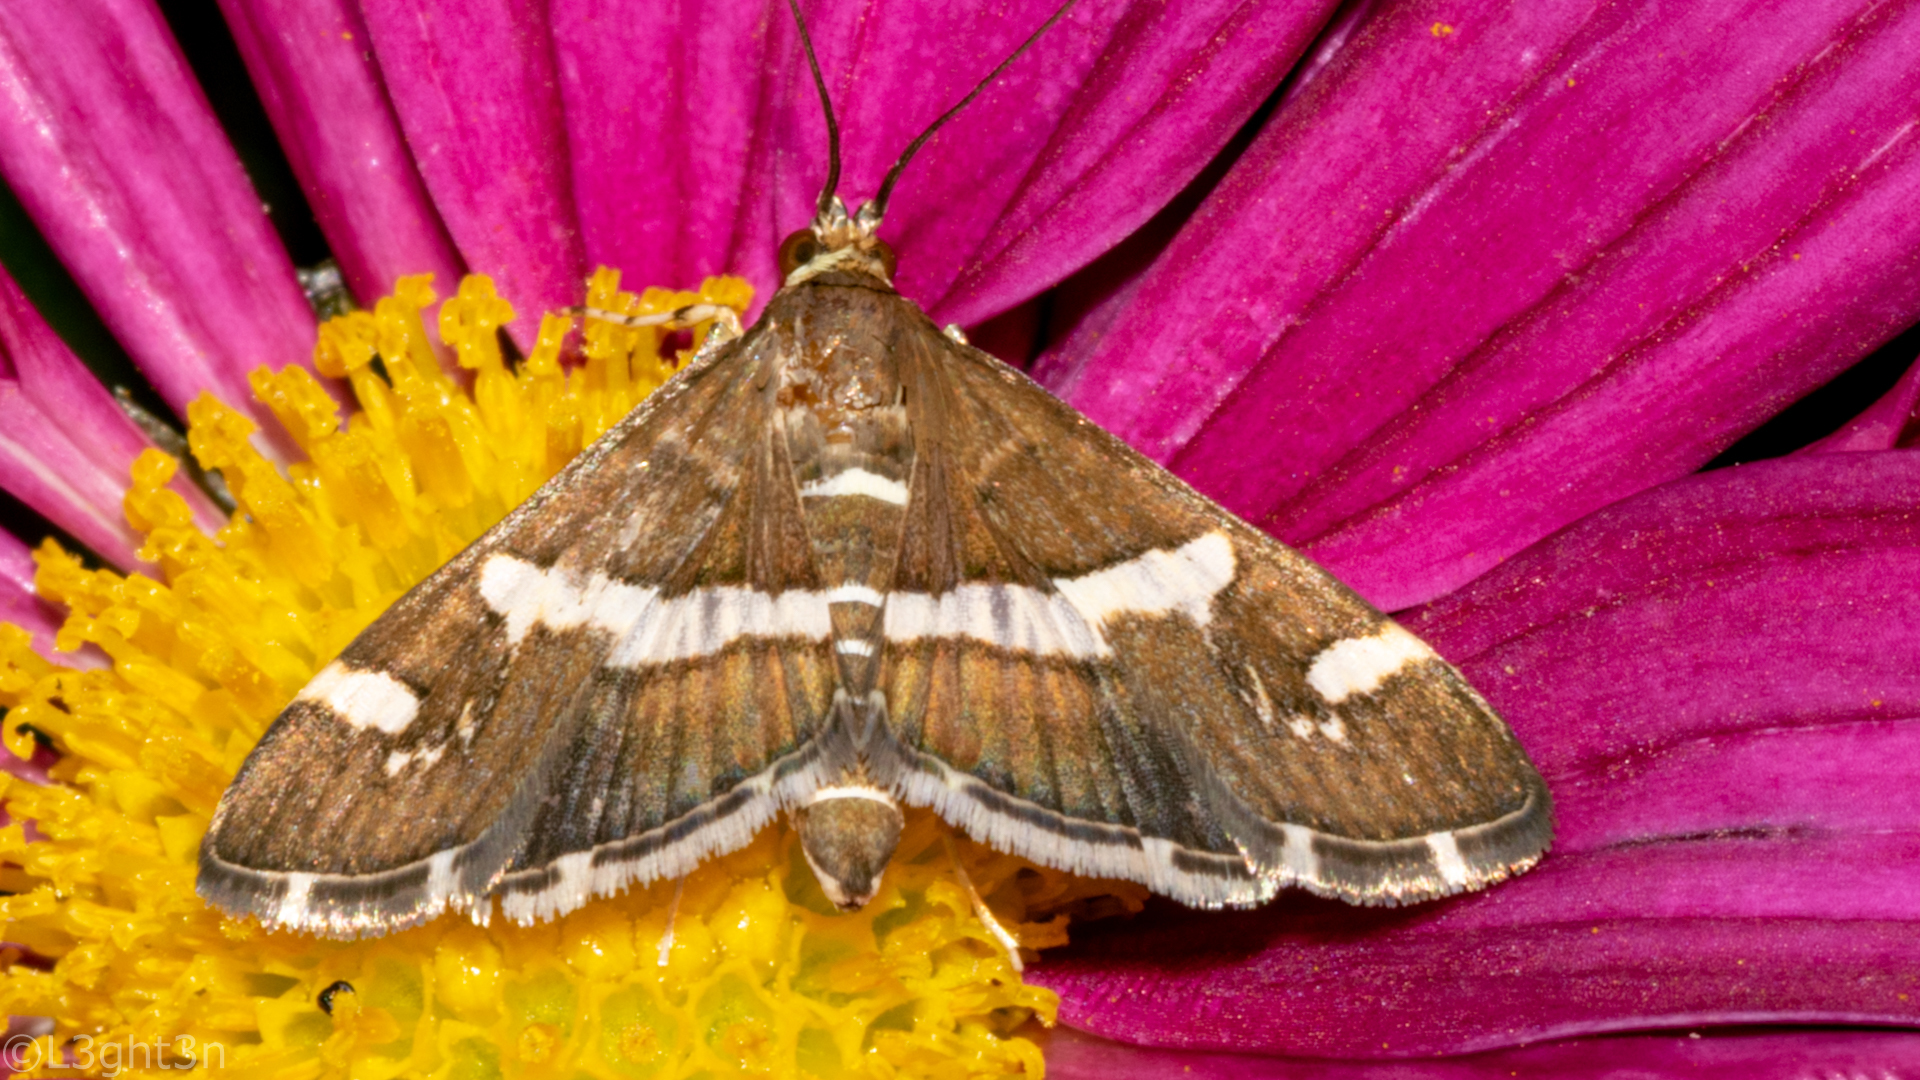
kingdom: Animalia
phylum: Arthropoda
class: Insecta
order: Lepidoptera
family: Crambidae
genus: Spoladea
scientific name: Spoladea recurvalis
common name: Beet webworm moth
